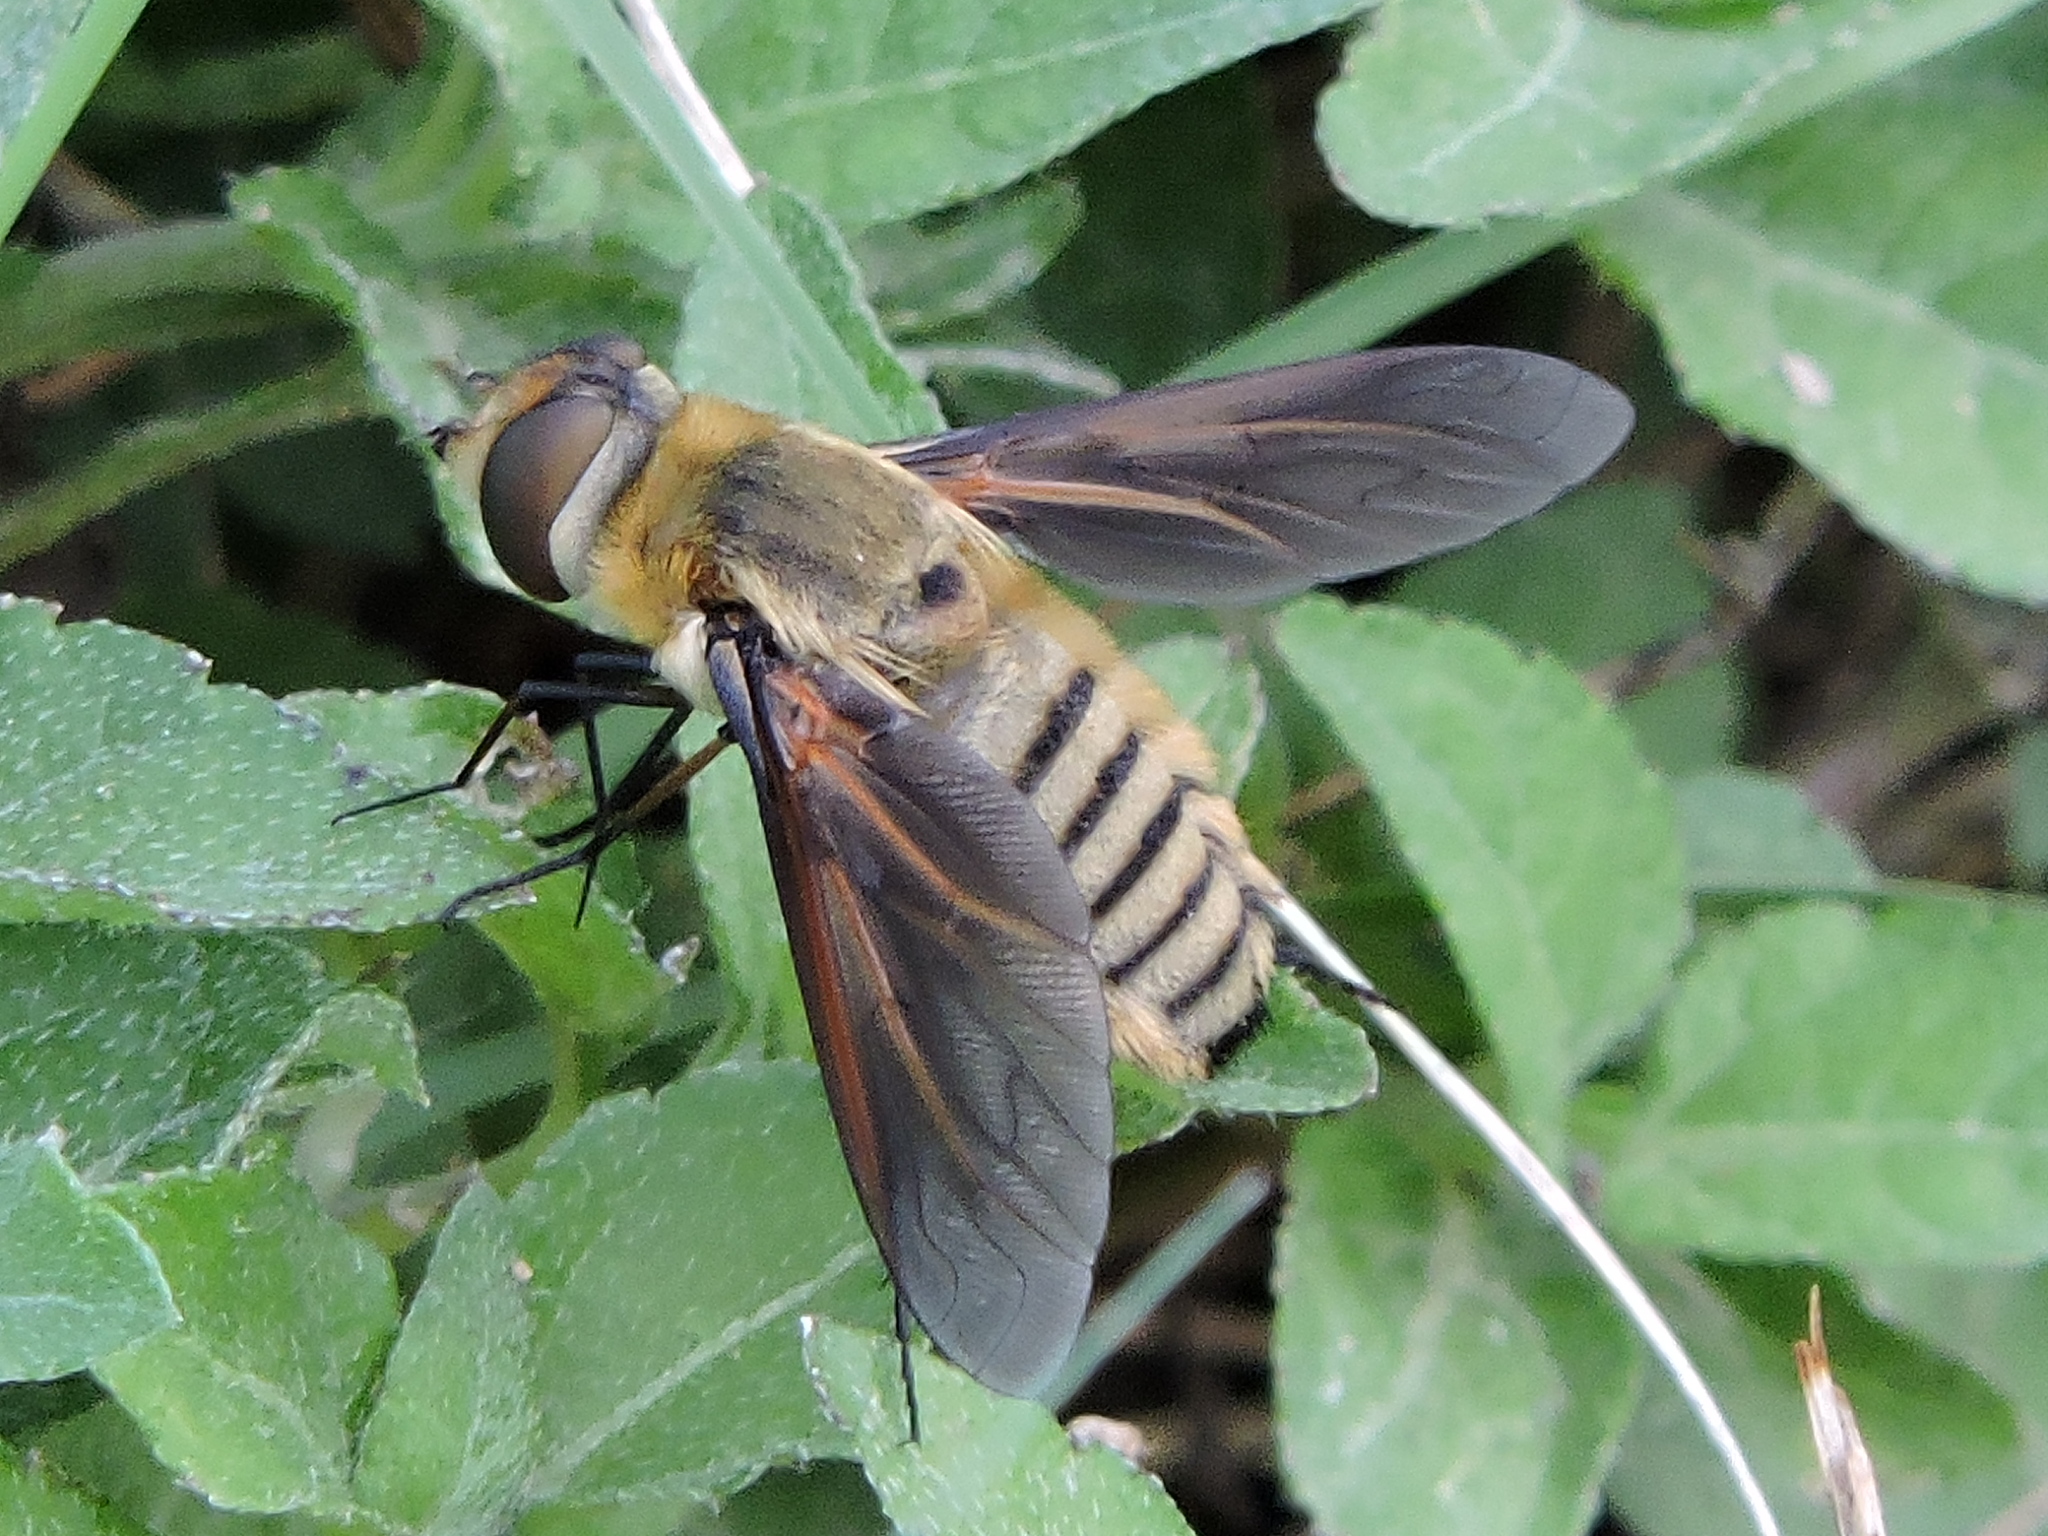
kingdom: Animalia
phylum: Arthropoda
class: Insecta
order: Diptera
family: Bombyliidae
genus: Poecilanthrax
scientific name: Poecilanthrax lucifer
